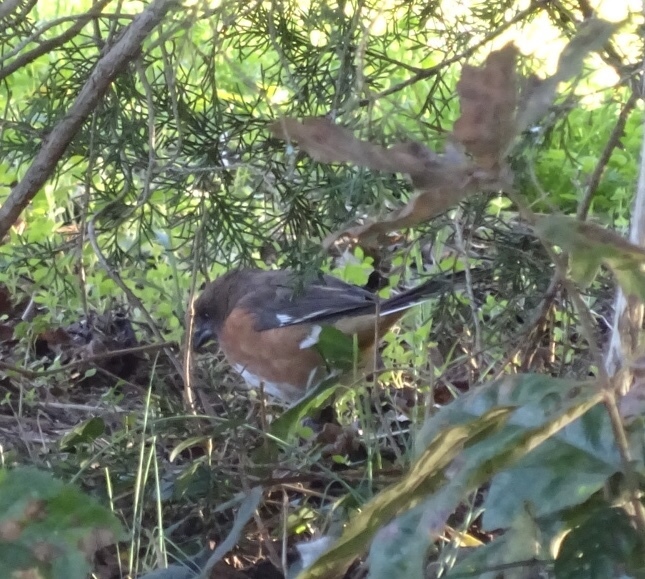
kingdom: Animalia
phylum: Chordata
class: Aves
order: Passeriformes
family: Passerellidae
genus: Pipilo
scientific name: Pipilo erythrophthalmus
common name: Eastern towhee
